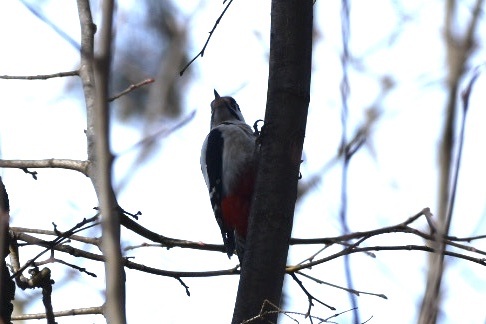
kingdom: Animalia
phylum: Chordata
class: Aves
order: Piciformes
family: Picidae
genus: Dendrocopos
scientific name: Dendrocopos major
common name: Great spotted woodpecker
